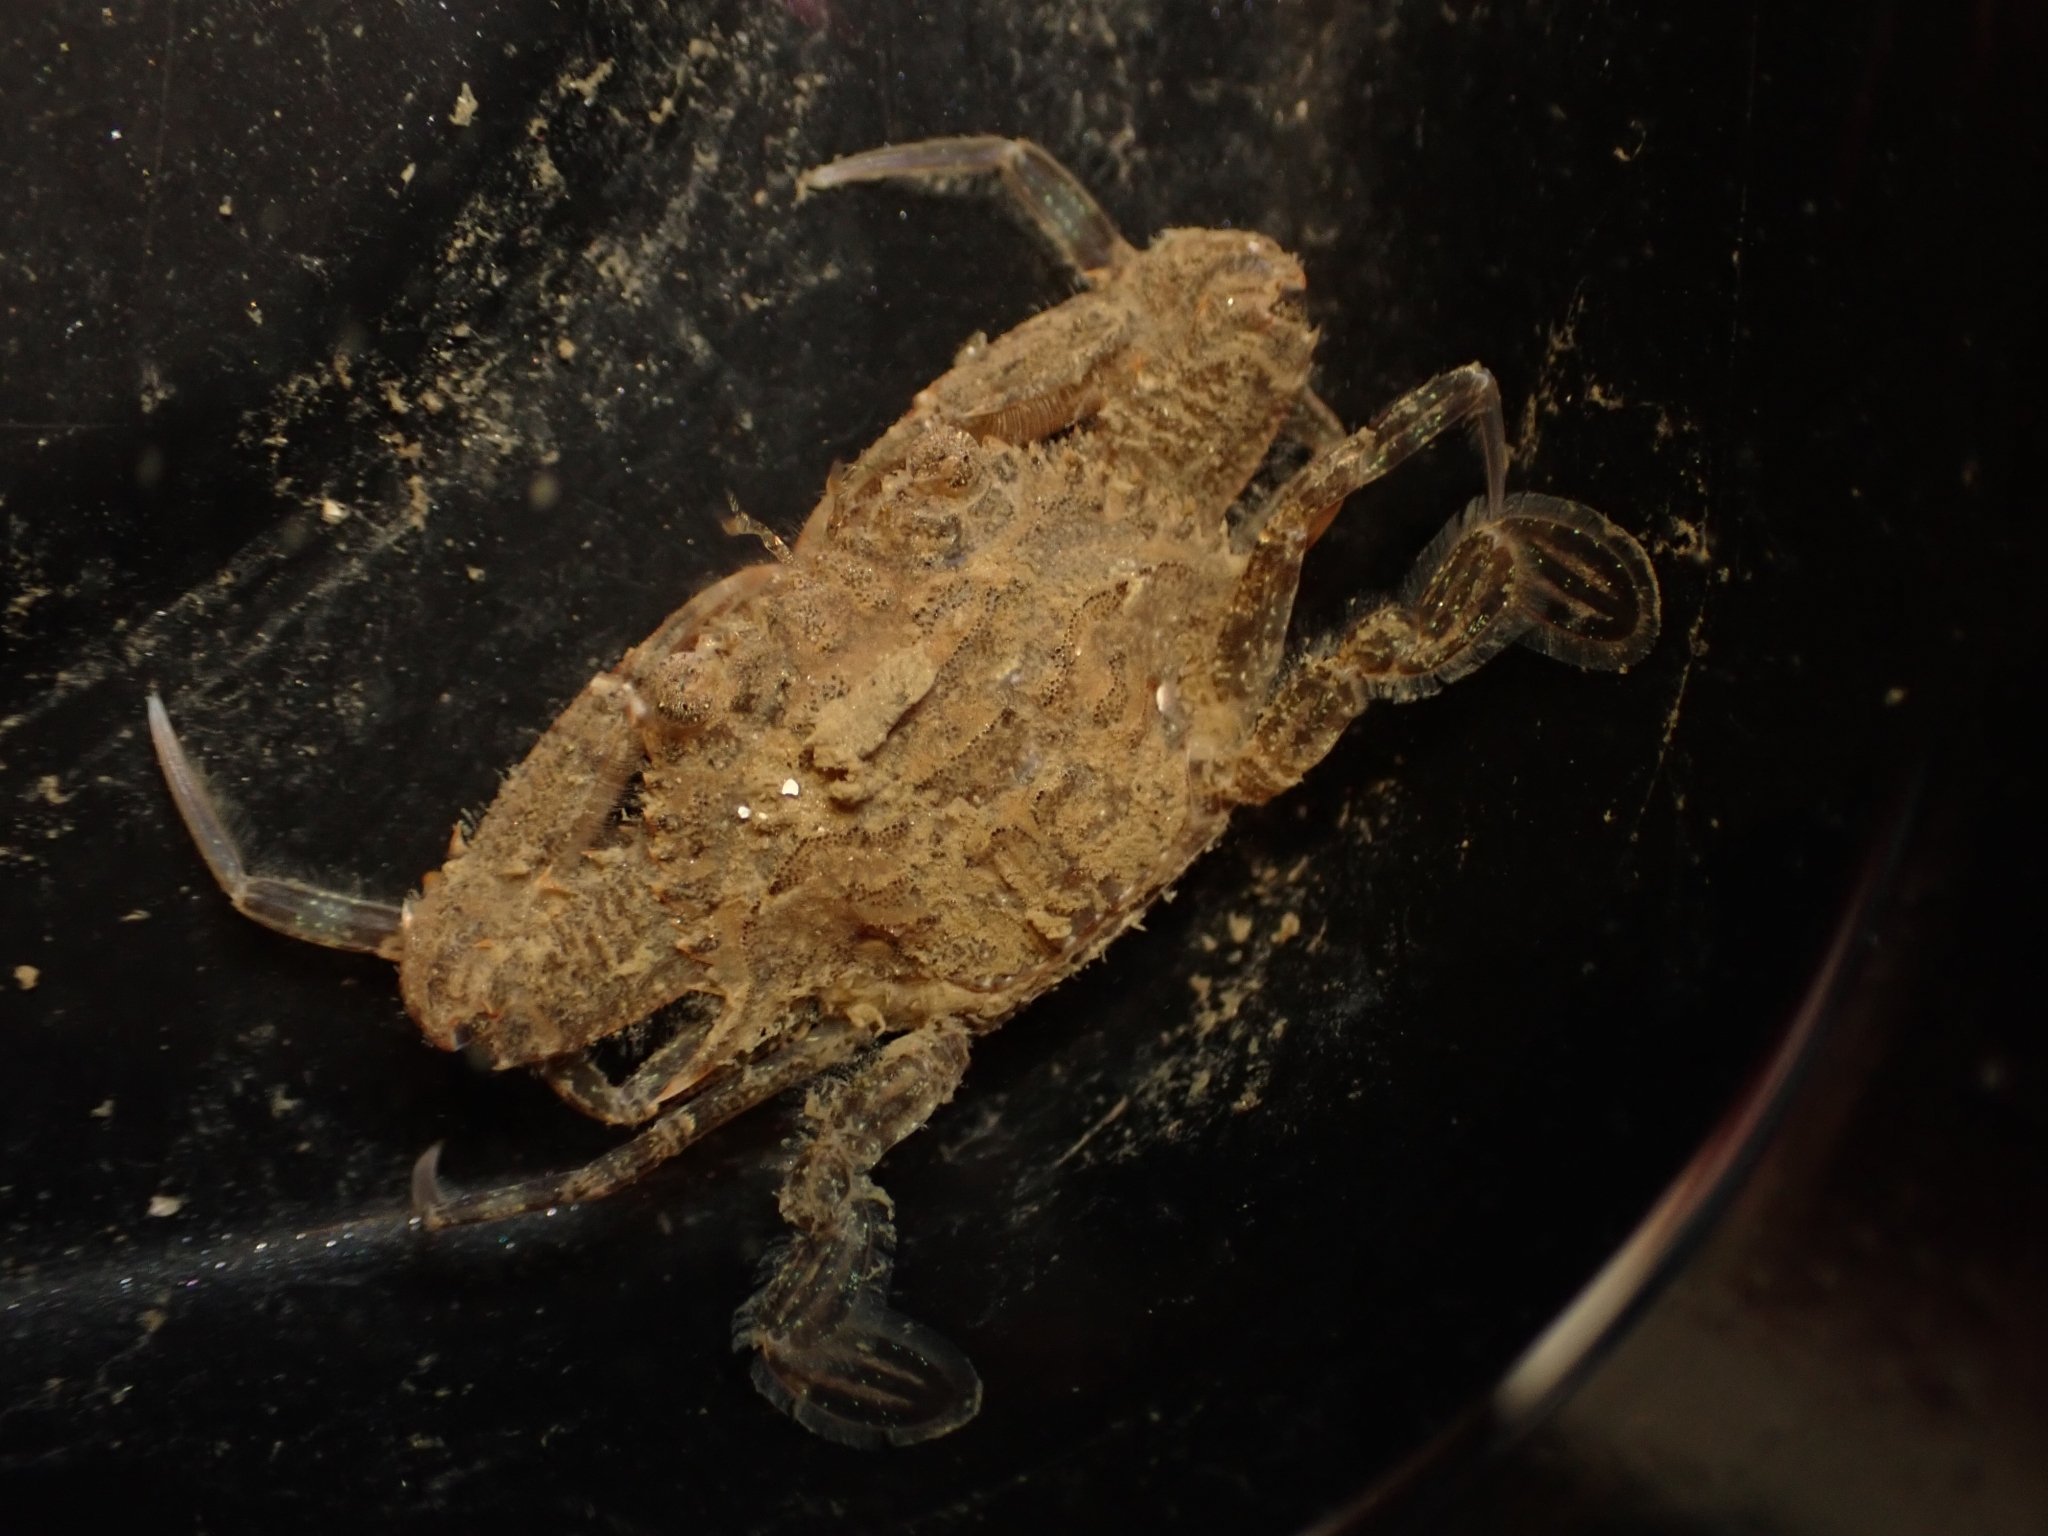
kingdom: Animalia
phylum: Arthropoda
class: Malacostraca
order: Decapoda
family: Portunidae
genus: Achelous
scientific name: Achelous xantusii
